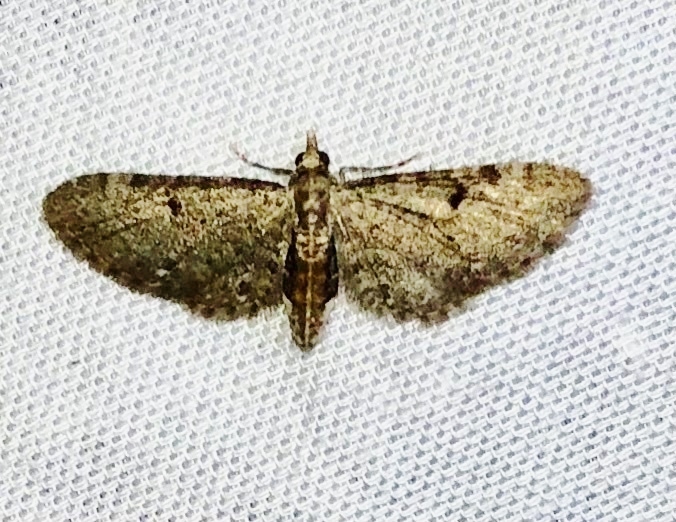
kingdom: Animalia
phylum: Arthropoda
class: Insecta
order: Lepidoptera
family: Geometridae
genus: Eupithecia
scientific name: Eupithecia miserulata
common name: Common eupithecia
